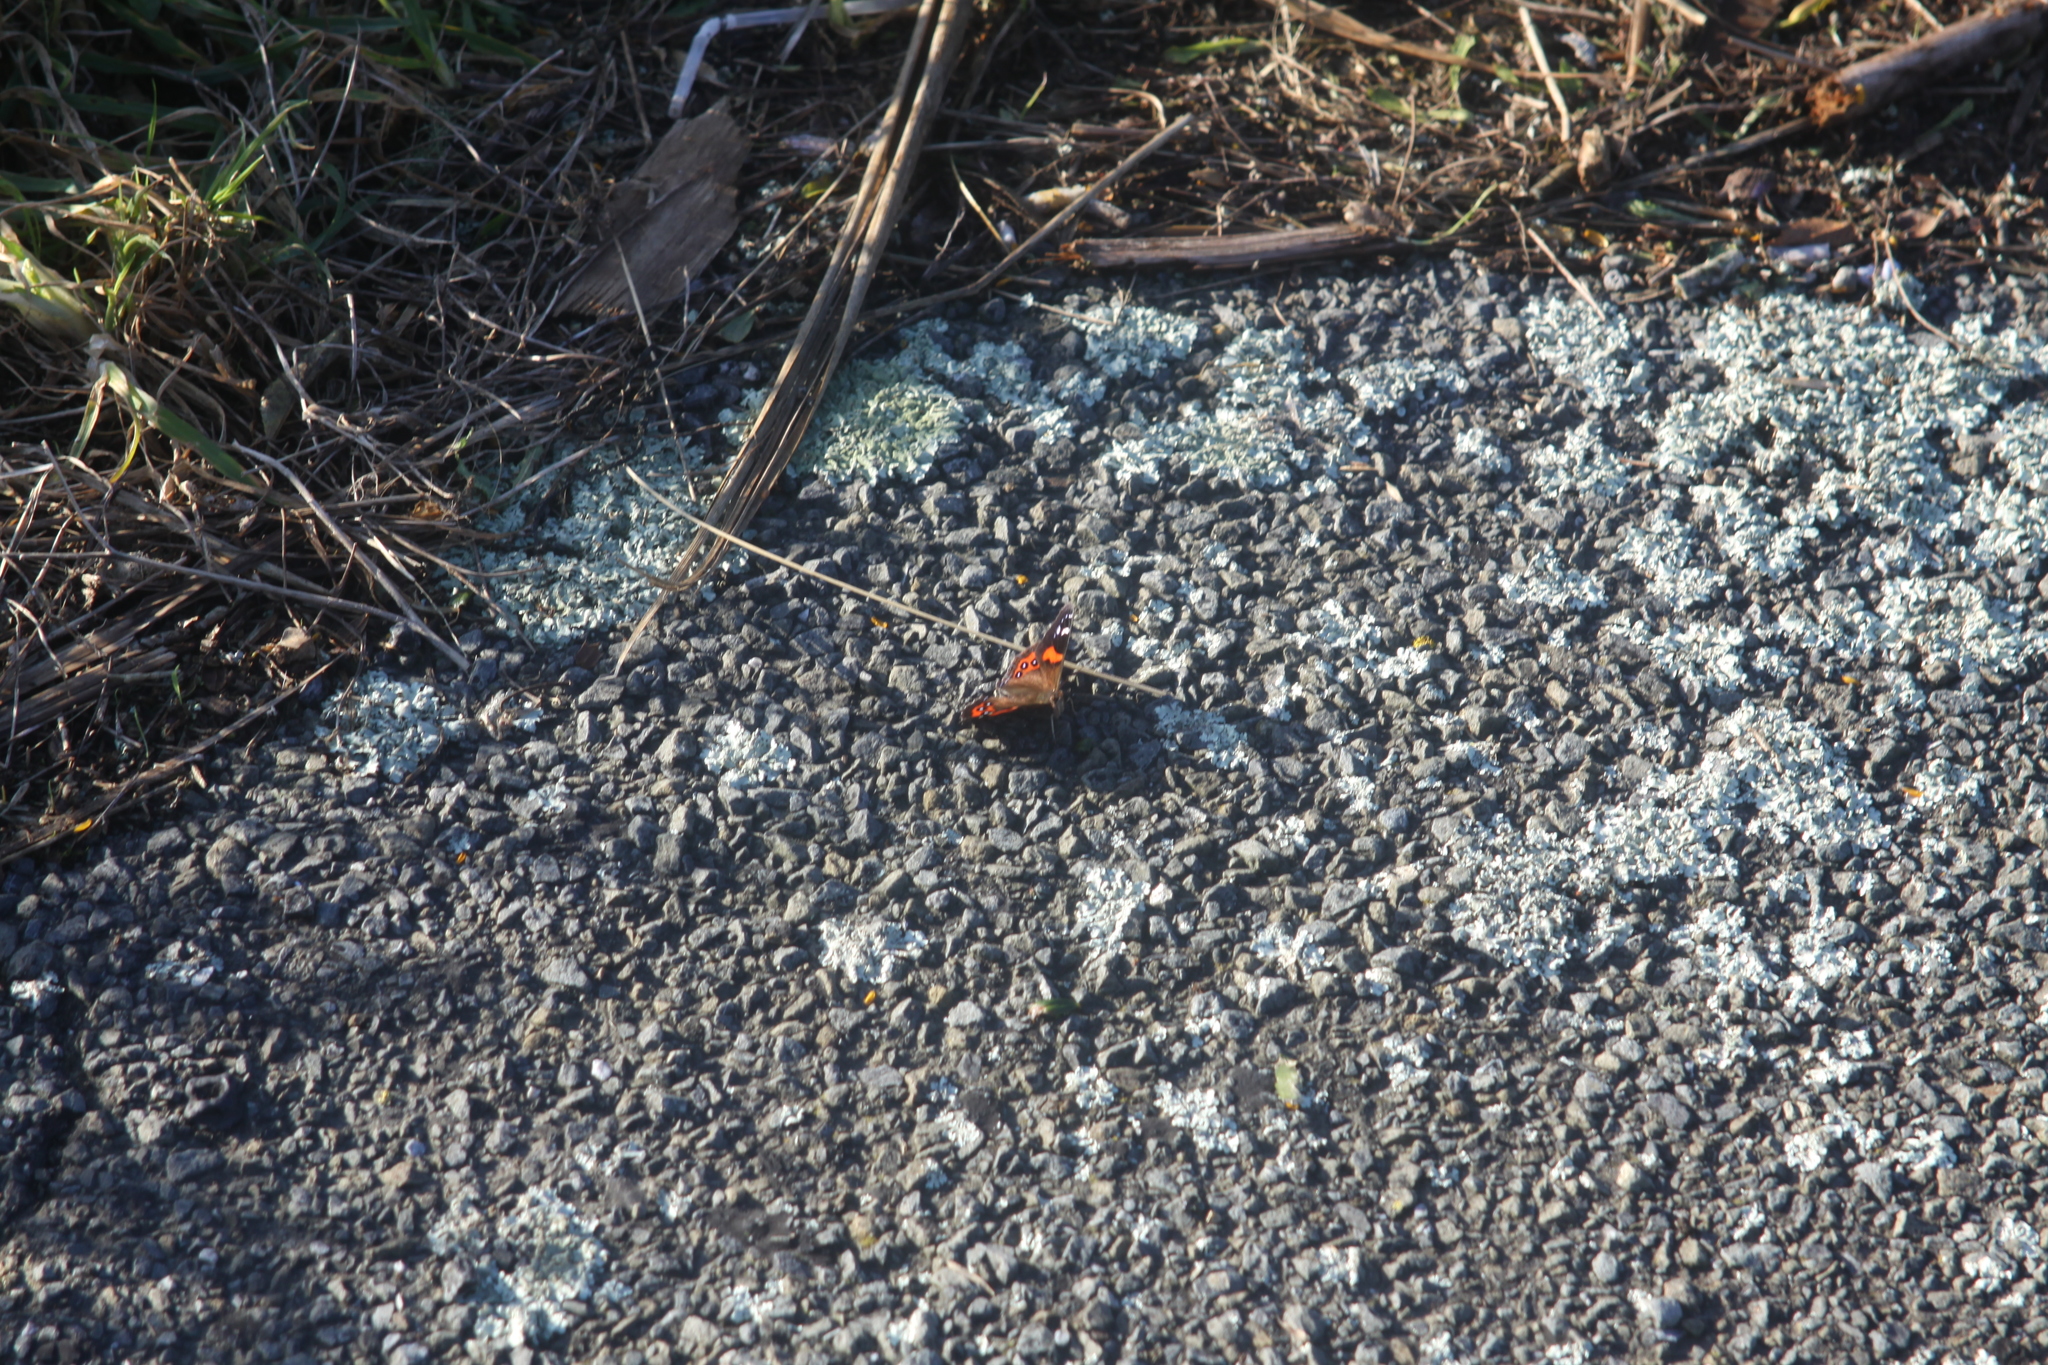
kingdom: Animalia
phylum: Arthropoda
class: Insecta
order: Lepidoptera
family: Nymphalidae
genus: Vanessa
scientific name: Vanessa gonerilla
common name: New zealand red admiral
